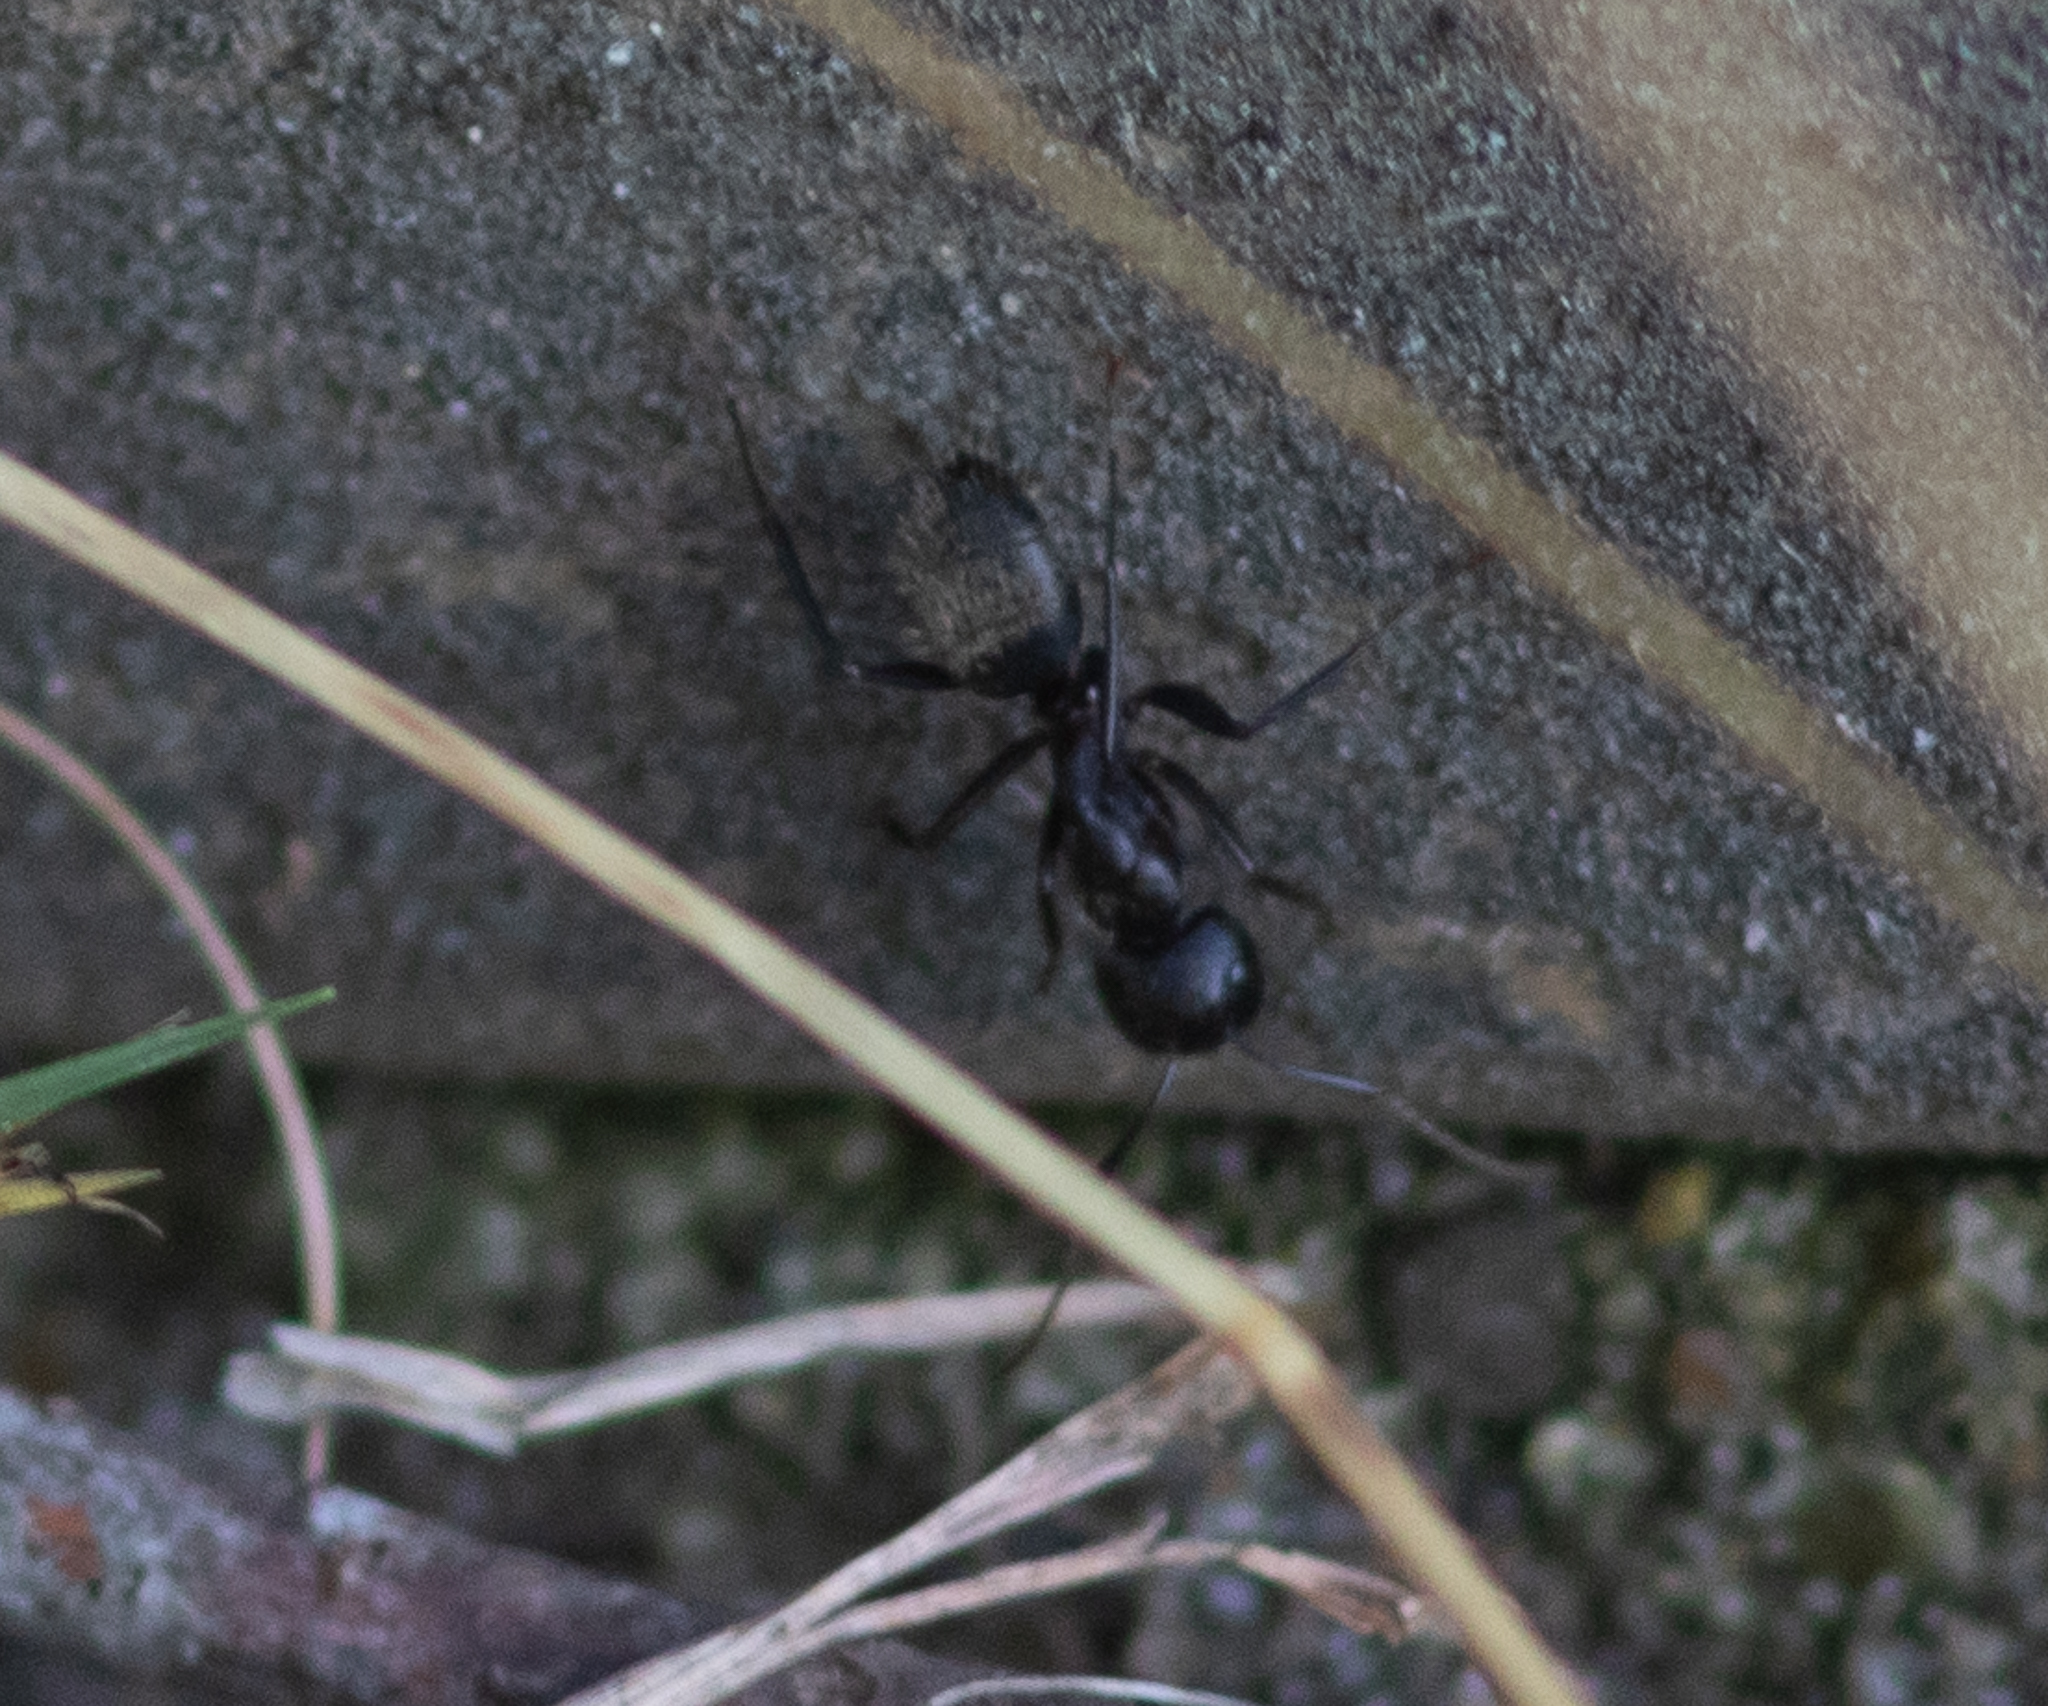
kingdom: Animalia
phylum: Arthropoda
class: Insecta
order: Hymenoptera
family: Formicidae
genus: Camponotus
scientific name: Camponotus pennsylvanicus
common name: Black carpenter ant
